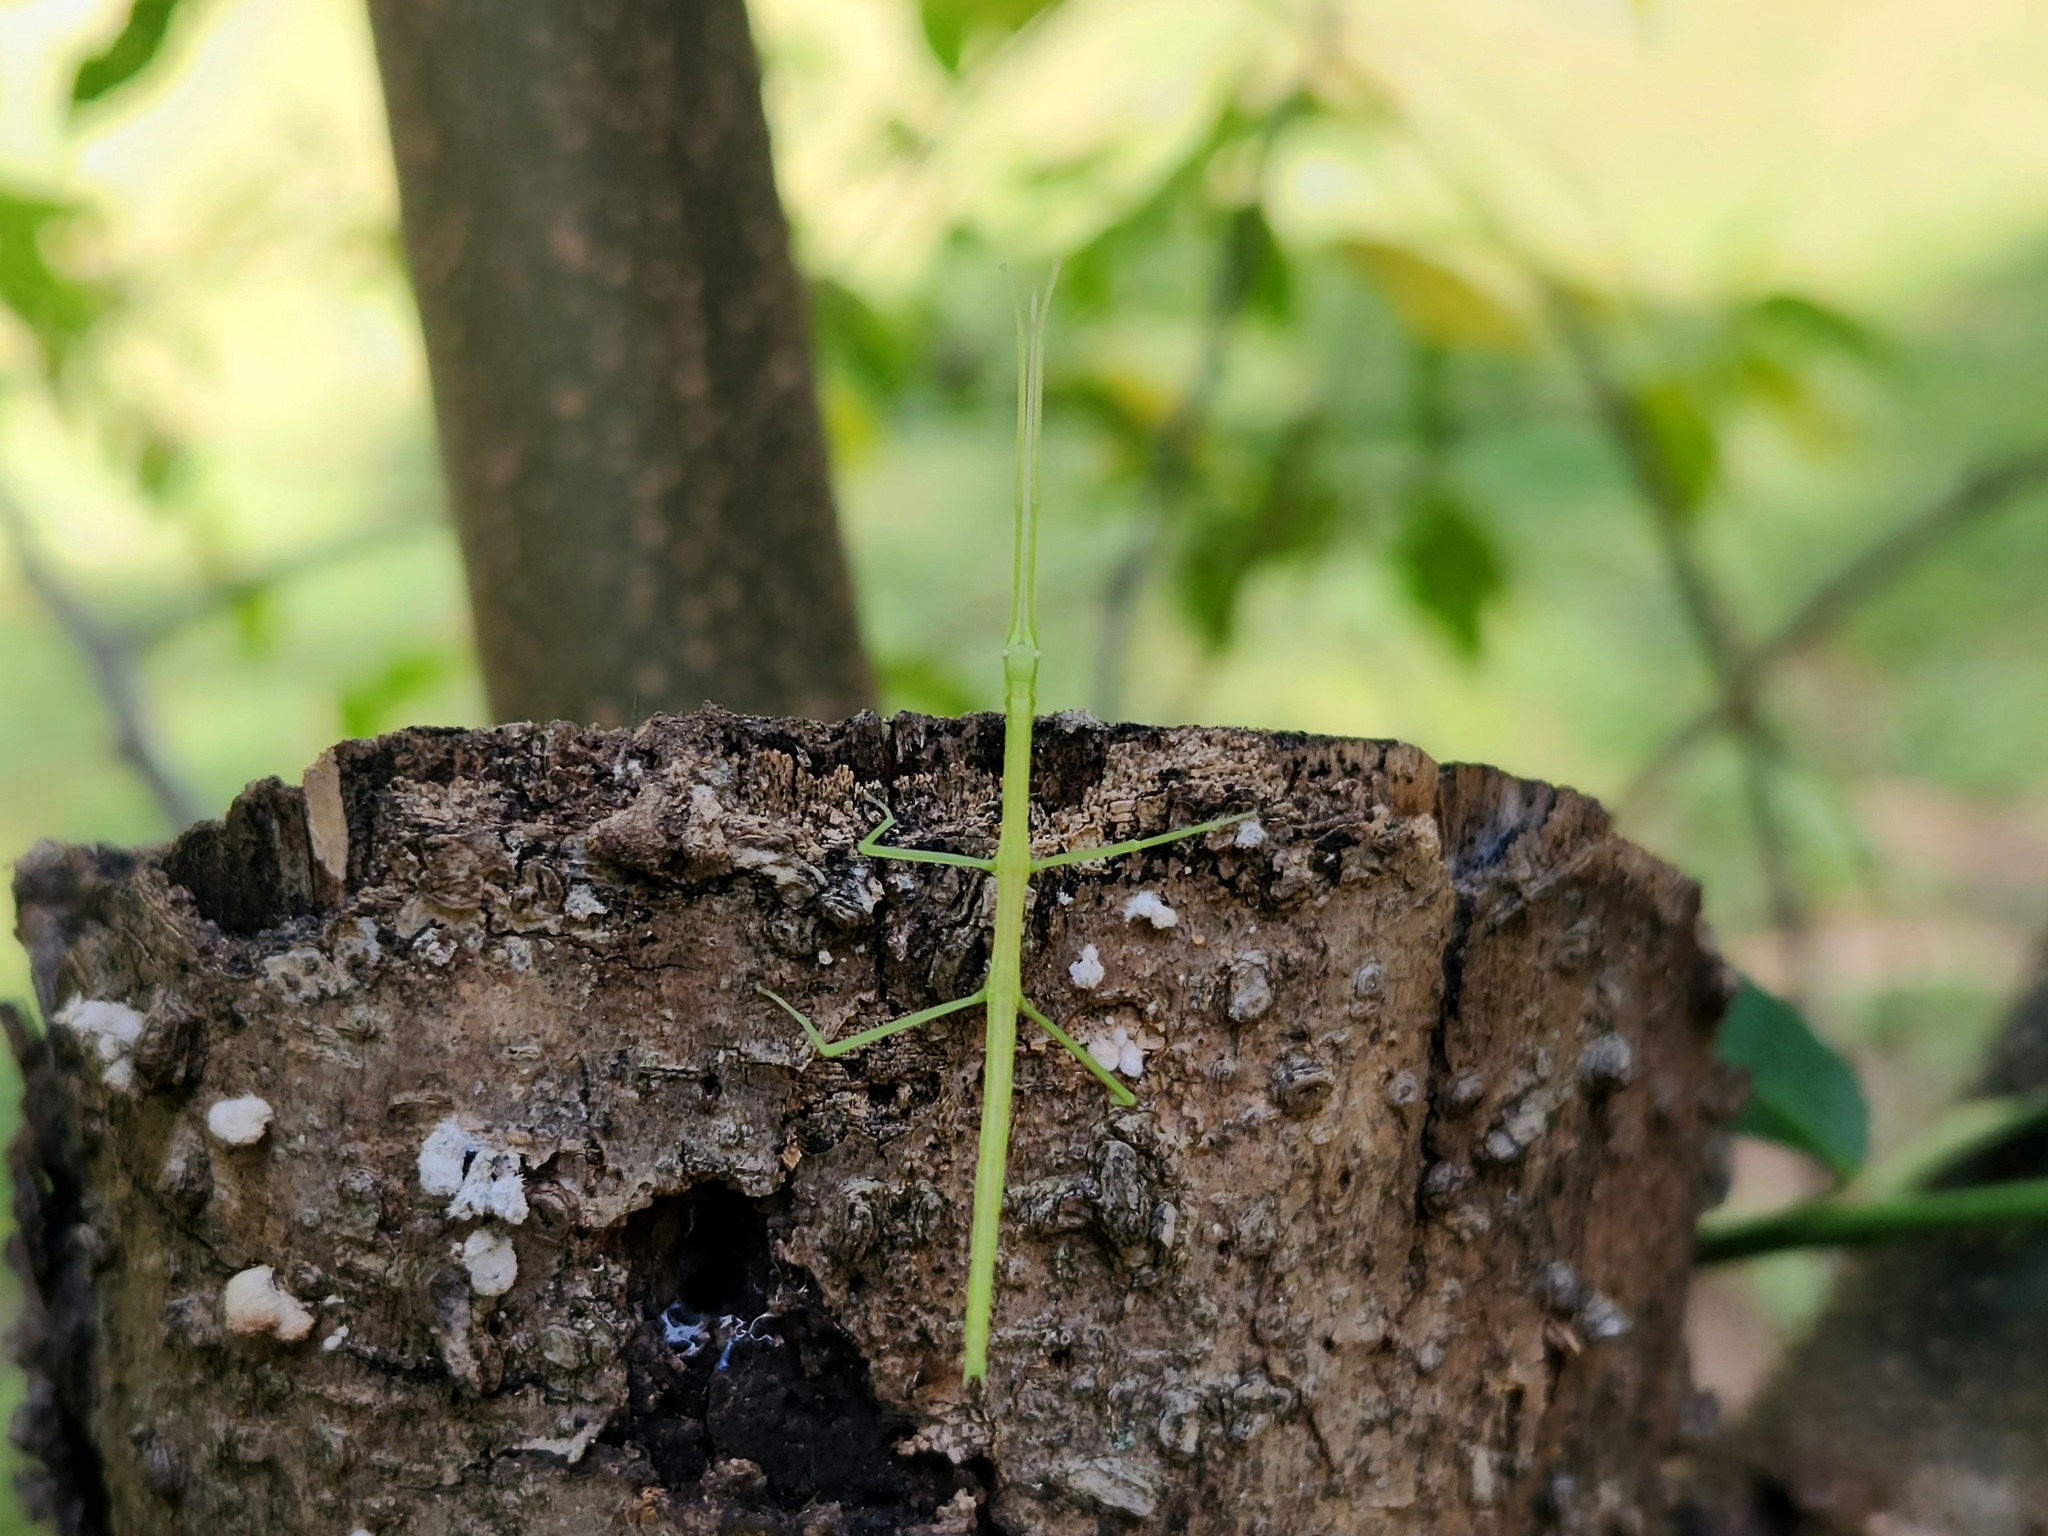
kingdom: Animalia
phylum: Arthropoda
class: Insecta
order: Phasmida
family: Diapheromeridae
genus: Diapheromera
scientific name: Diapheromera femorata
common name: Common american walkingstick
